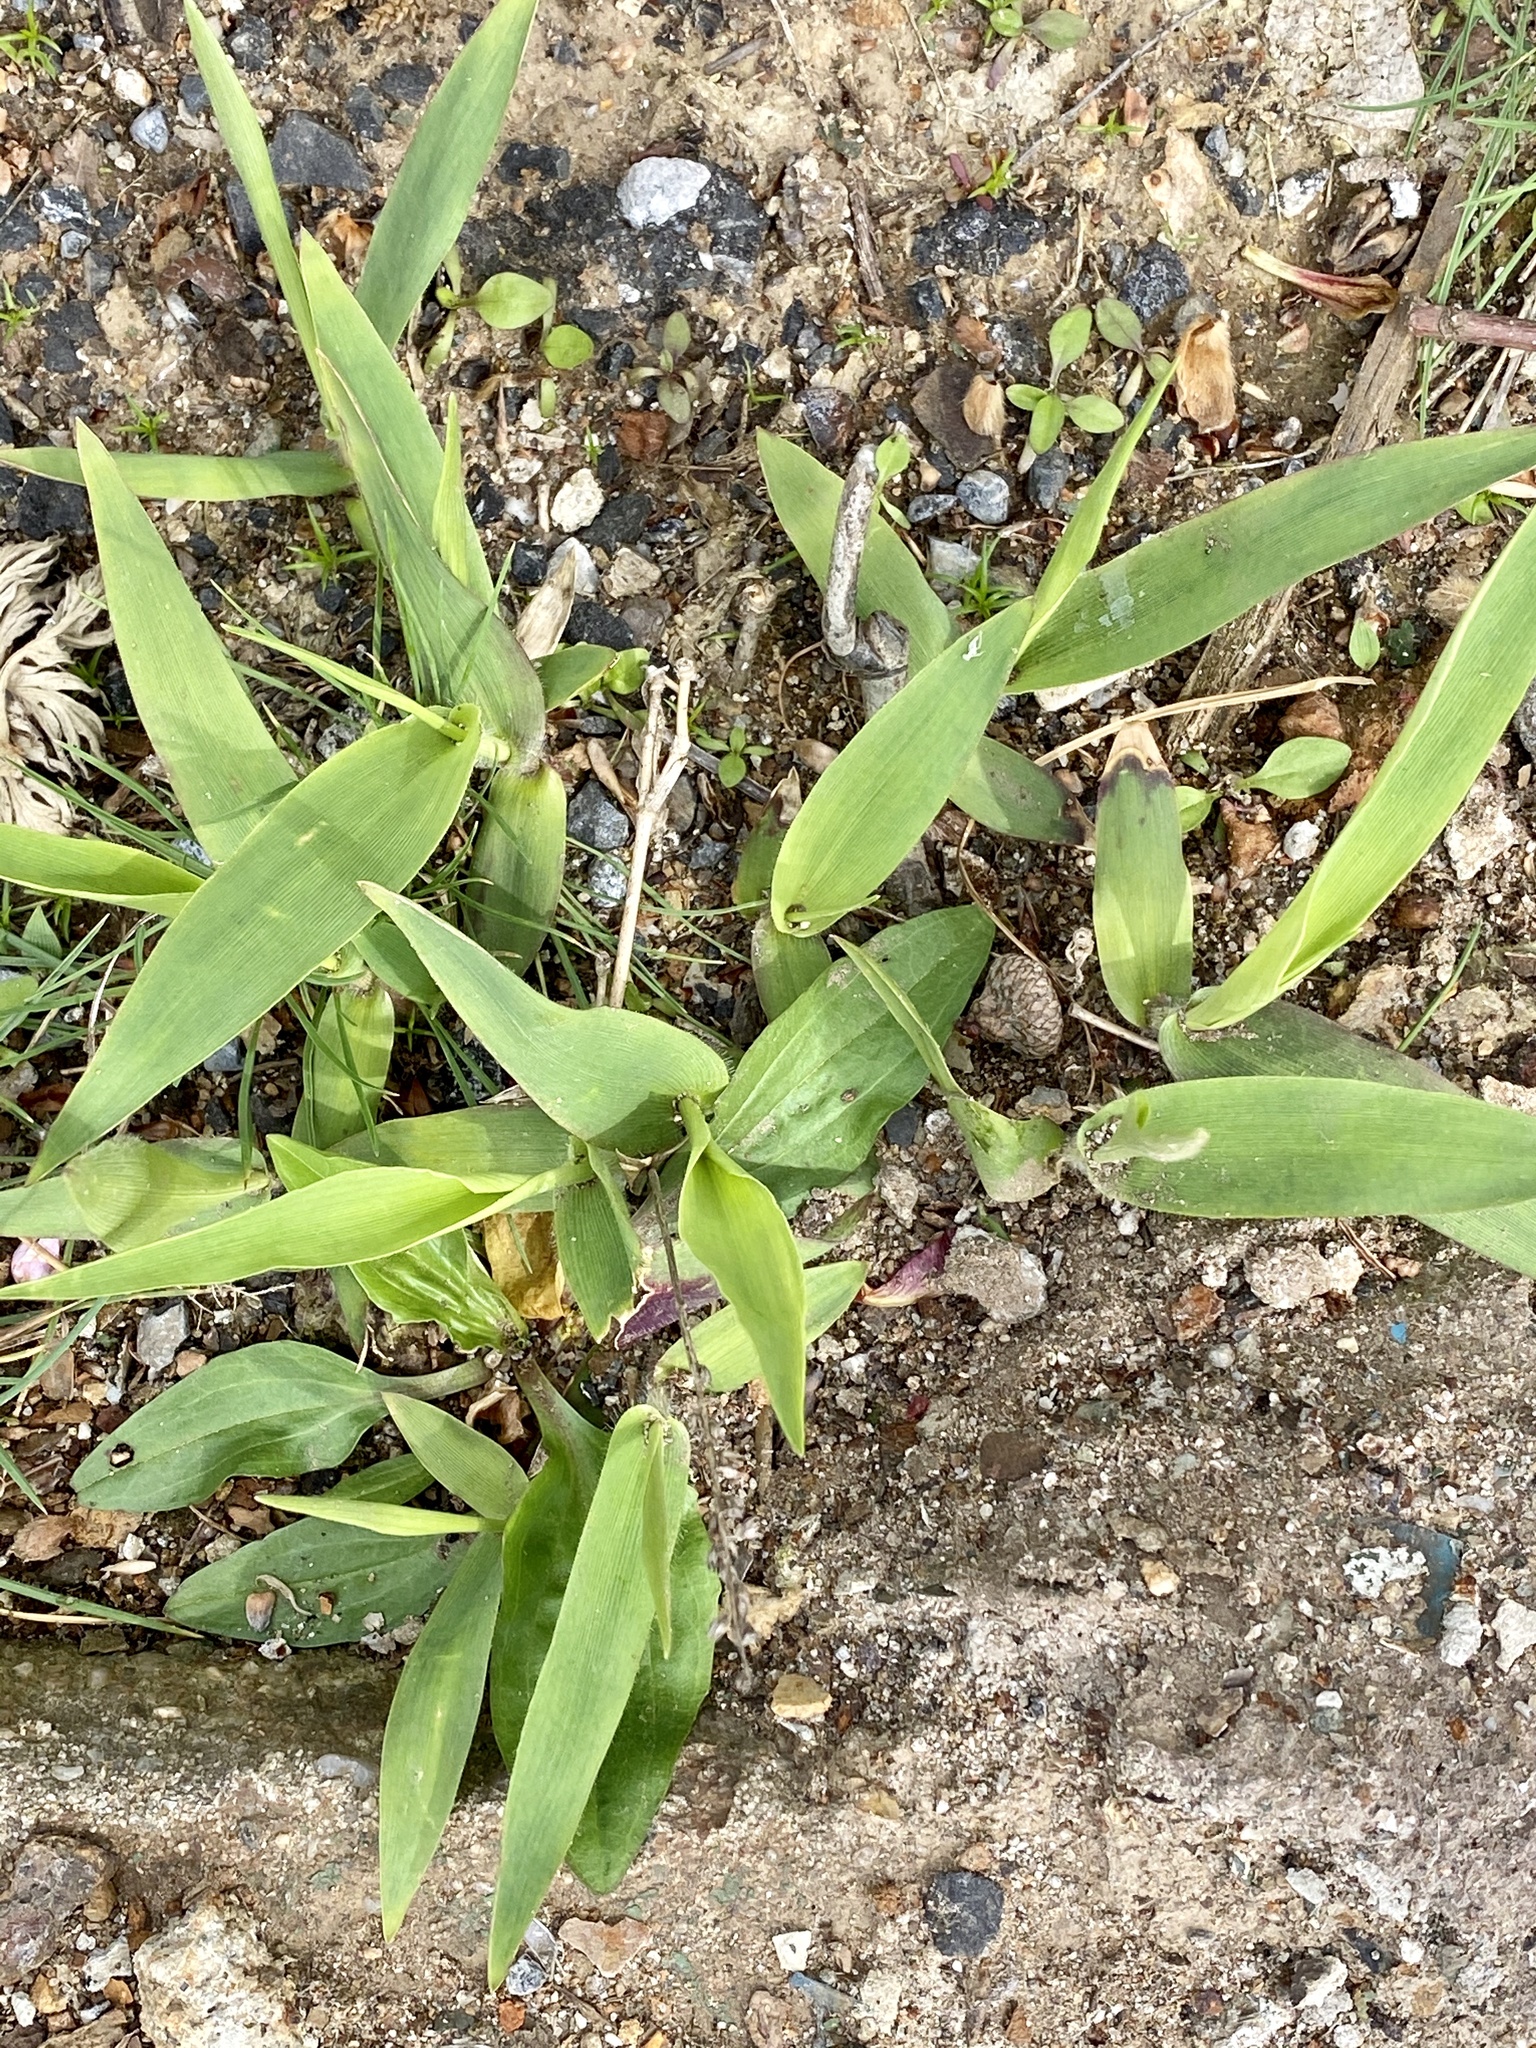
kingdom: Plantae
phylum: Tracheophyta
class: Liliopsida
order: Poales
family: Poaceae
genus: Dichanthelium
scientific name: Dichanthelium clandestinum
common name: Deer-tongue grass
